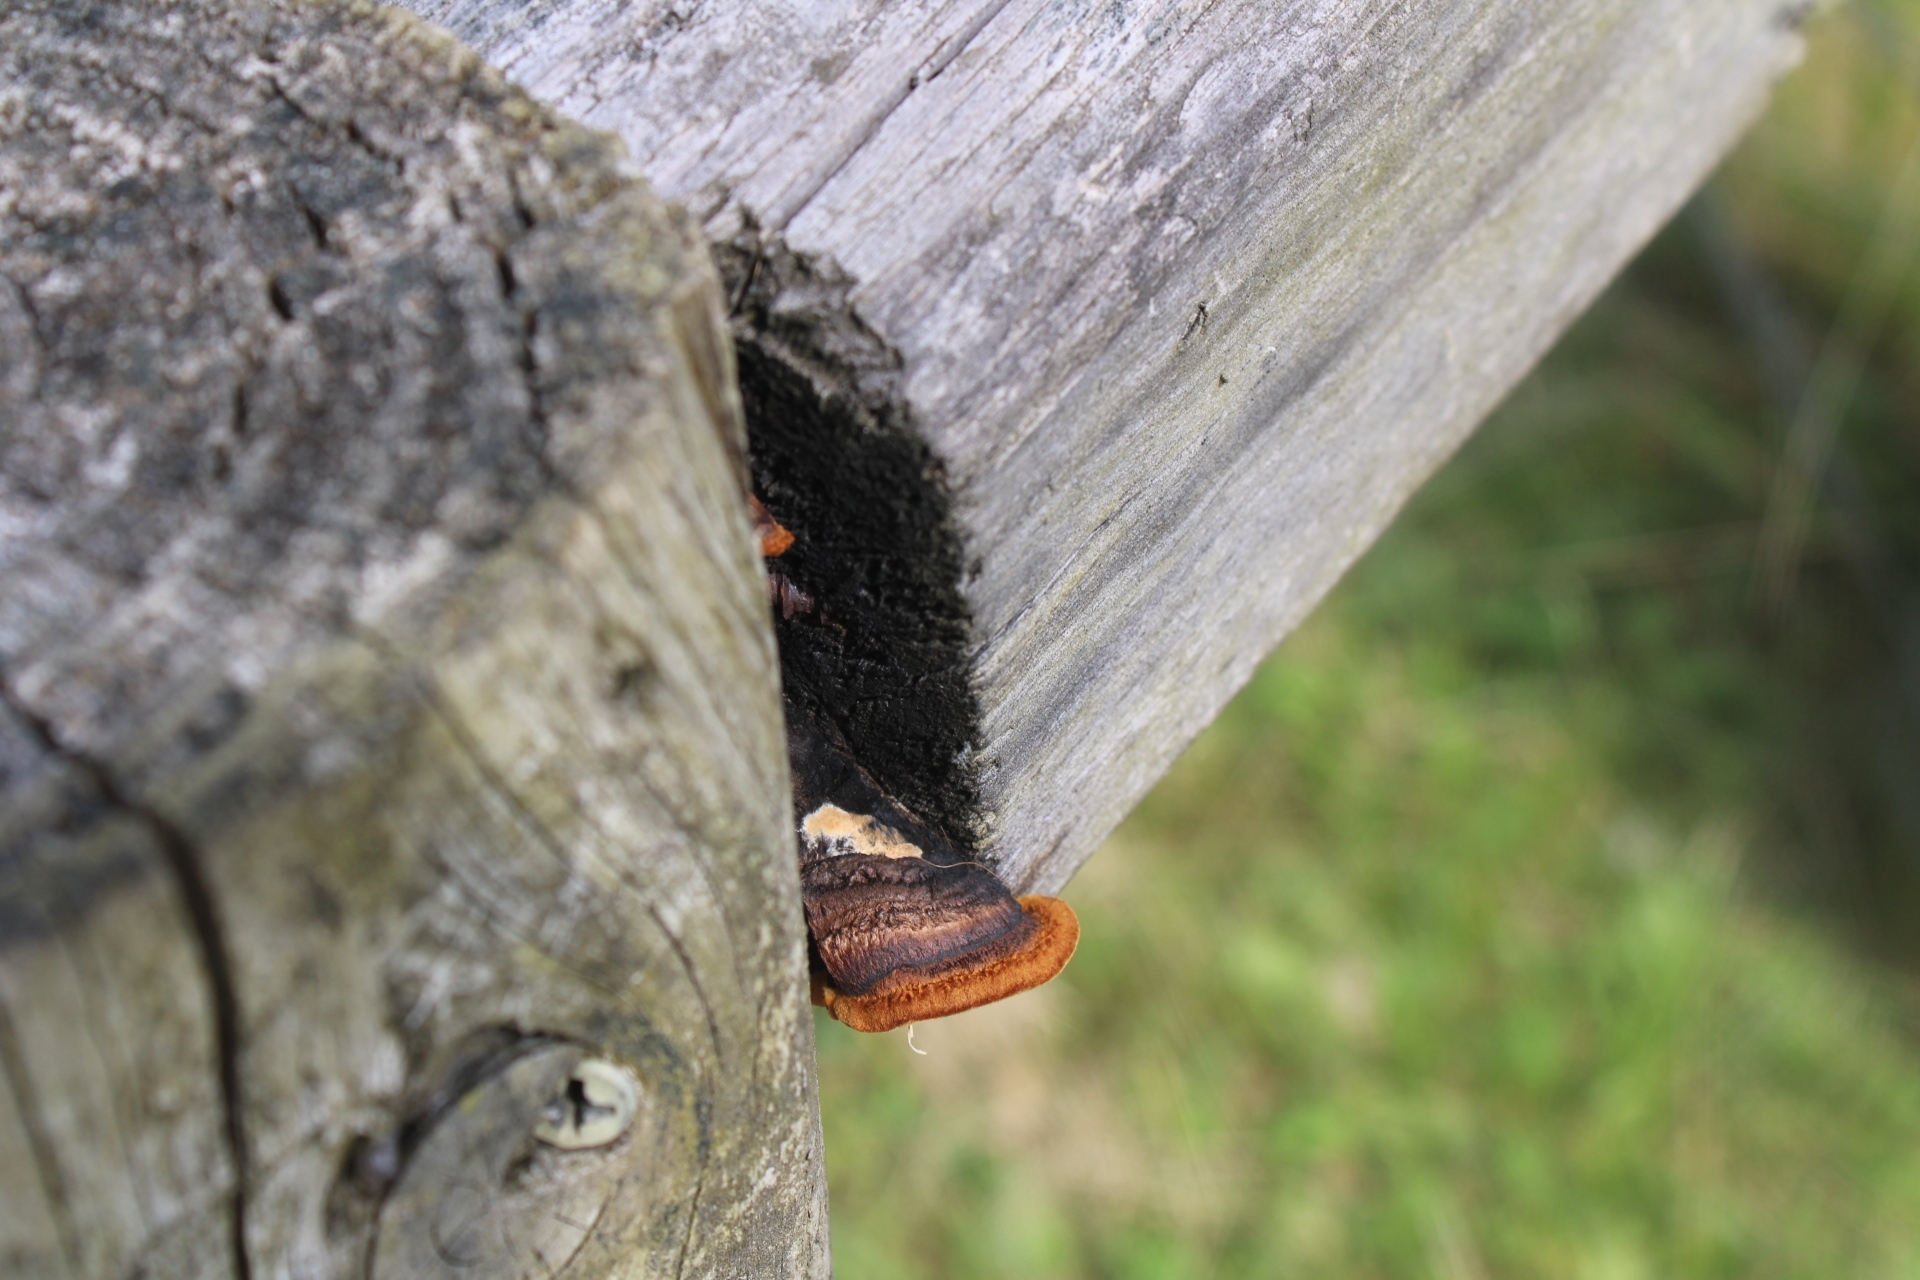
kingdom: Fungi
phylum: Basidiomycota
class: Agaricomycetes
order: Gloeophyllales
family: Gloeophyllaceae
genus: Gloeophyllum
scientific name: Gloeophyllum sepiarium
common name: Conifer mazegill
